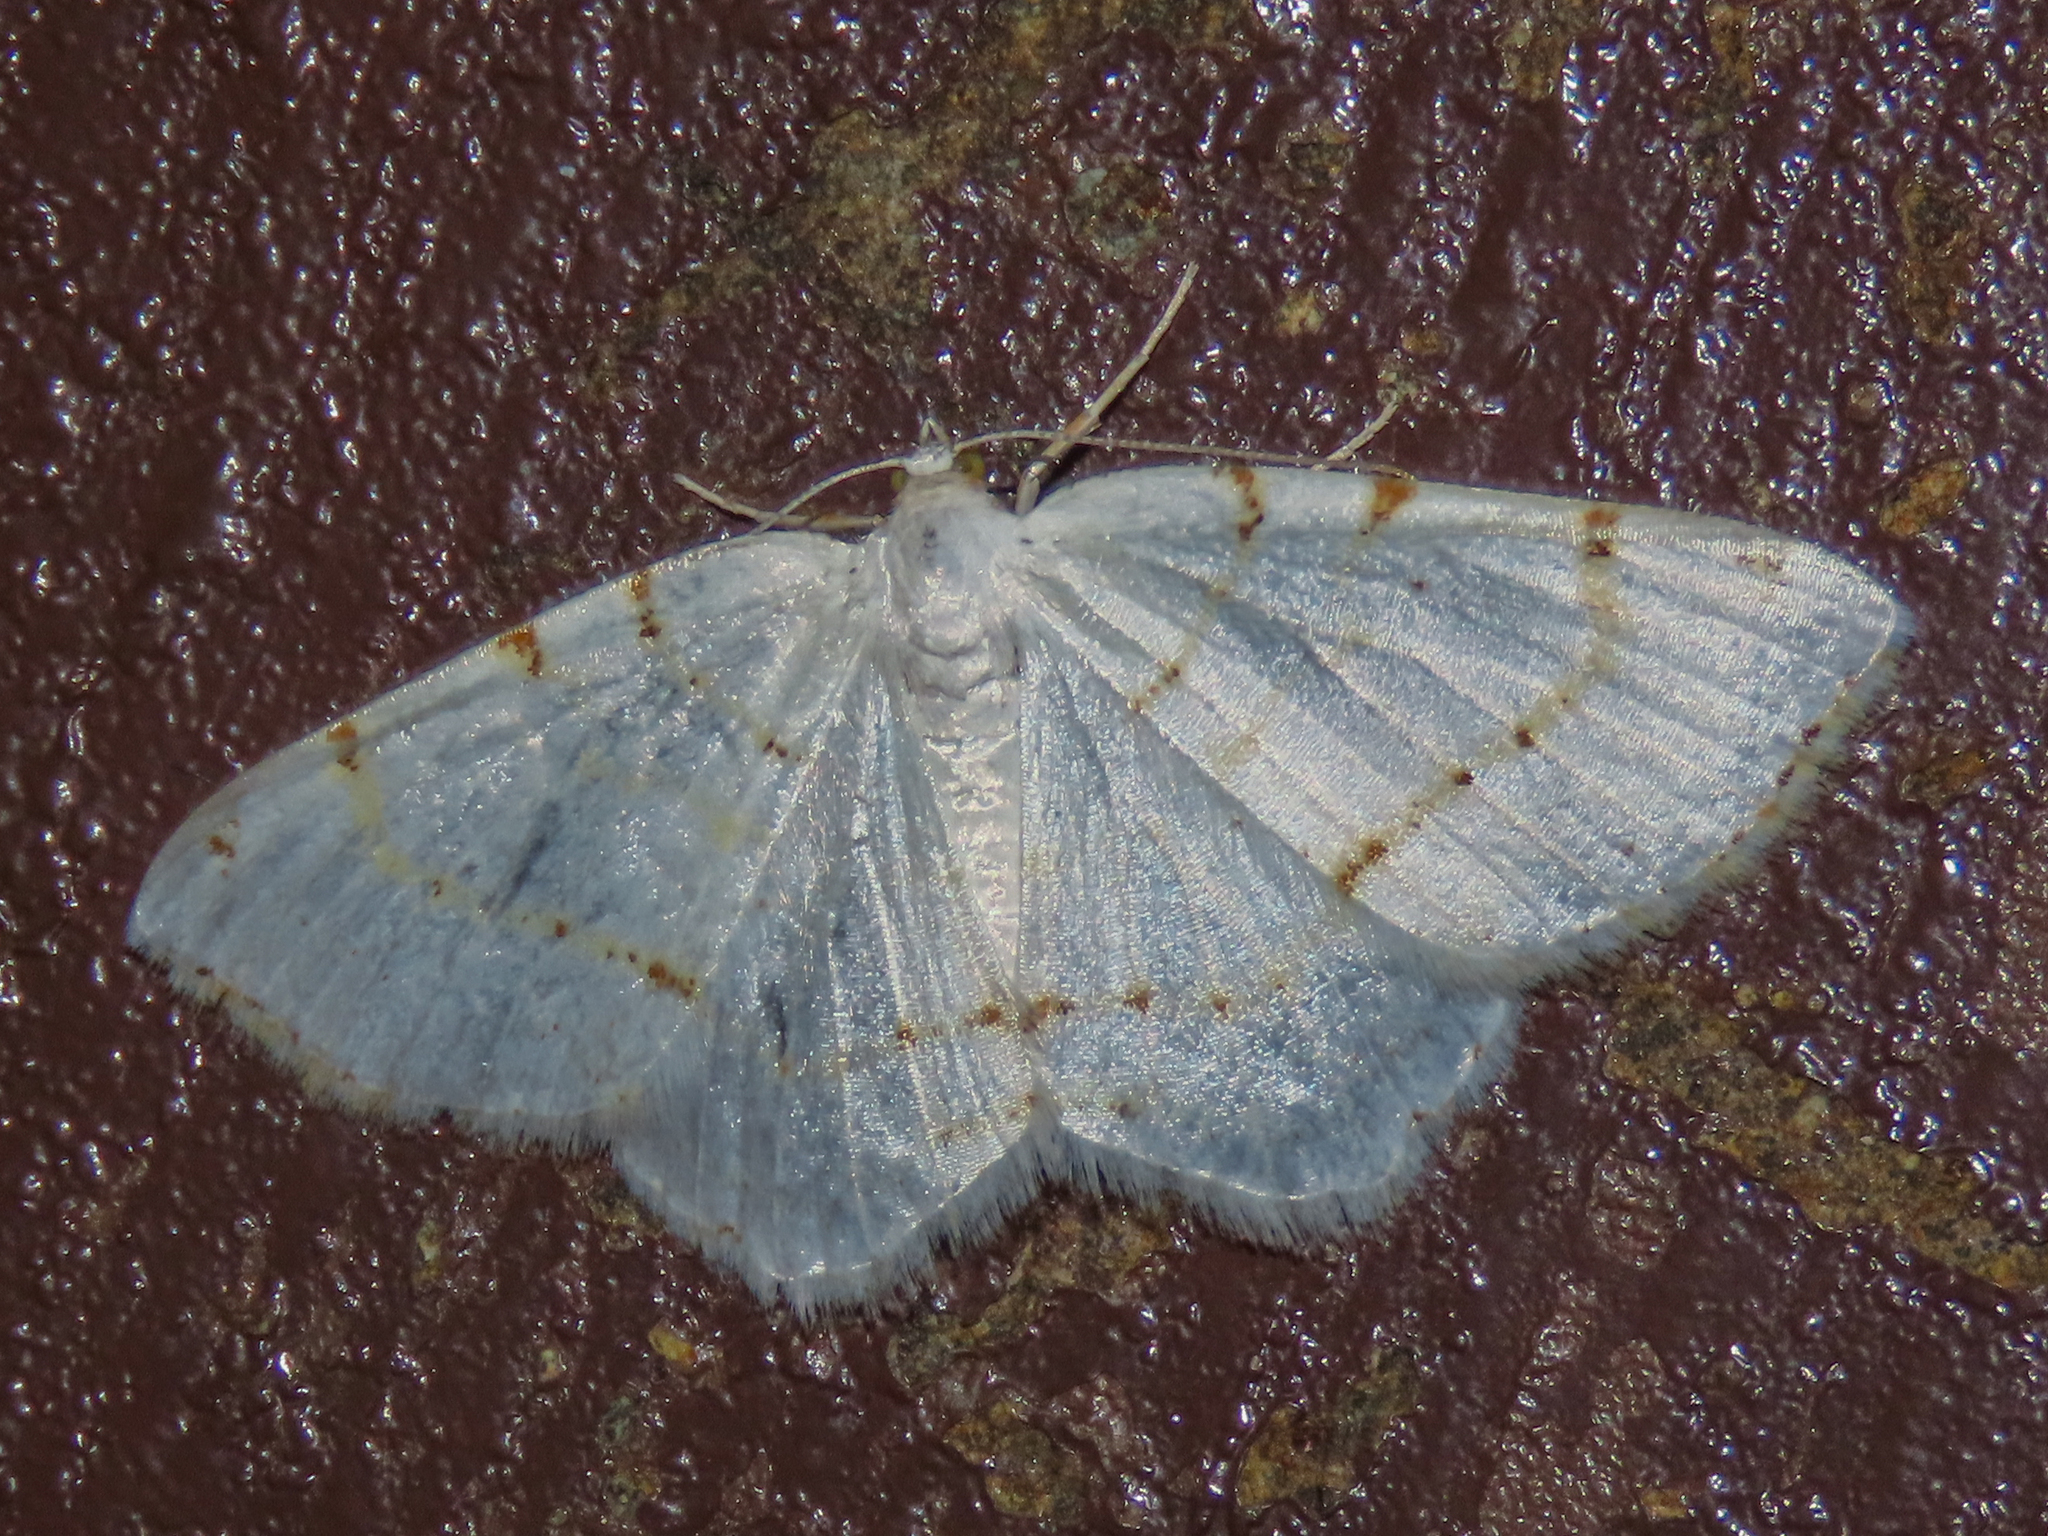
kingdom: Animalia
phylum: Arthropoda
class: Insecta
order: Lepidoptera
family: Geometridae
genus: Macaria
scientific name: Macaria pustularia
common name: Lesser maple spanworm moth
